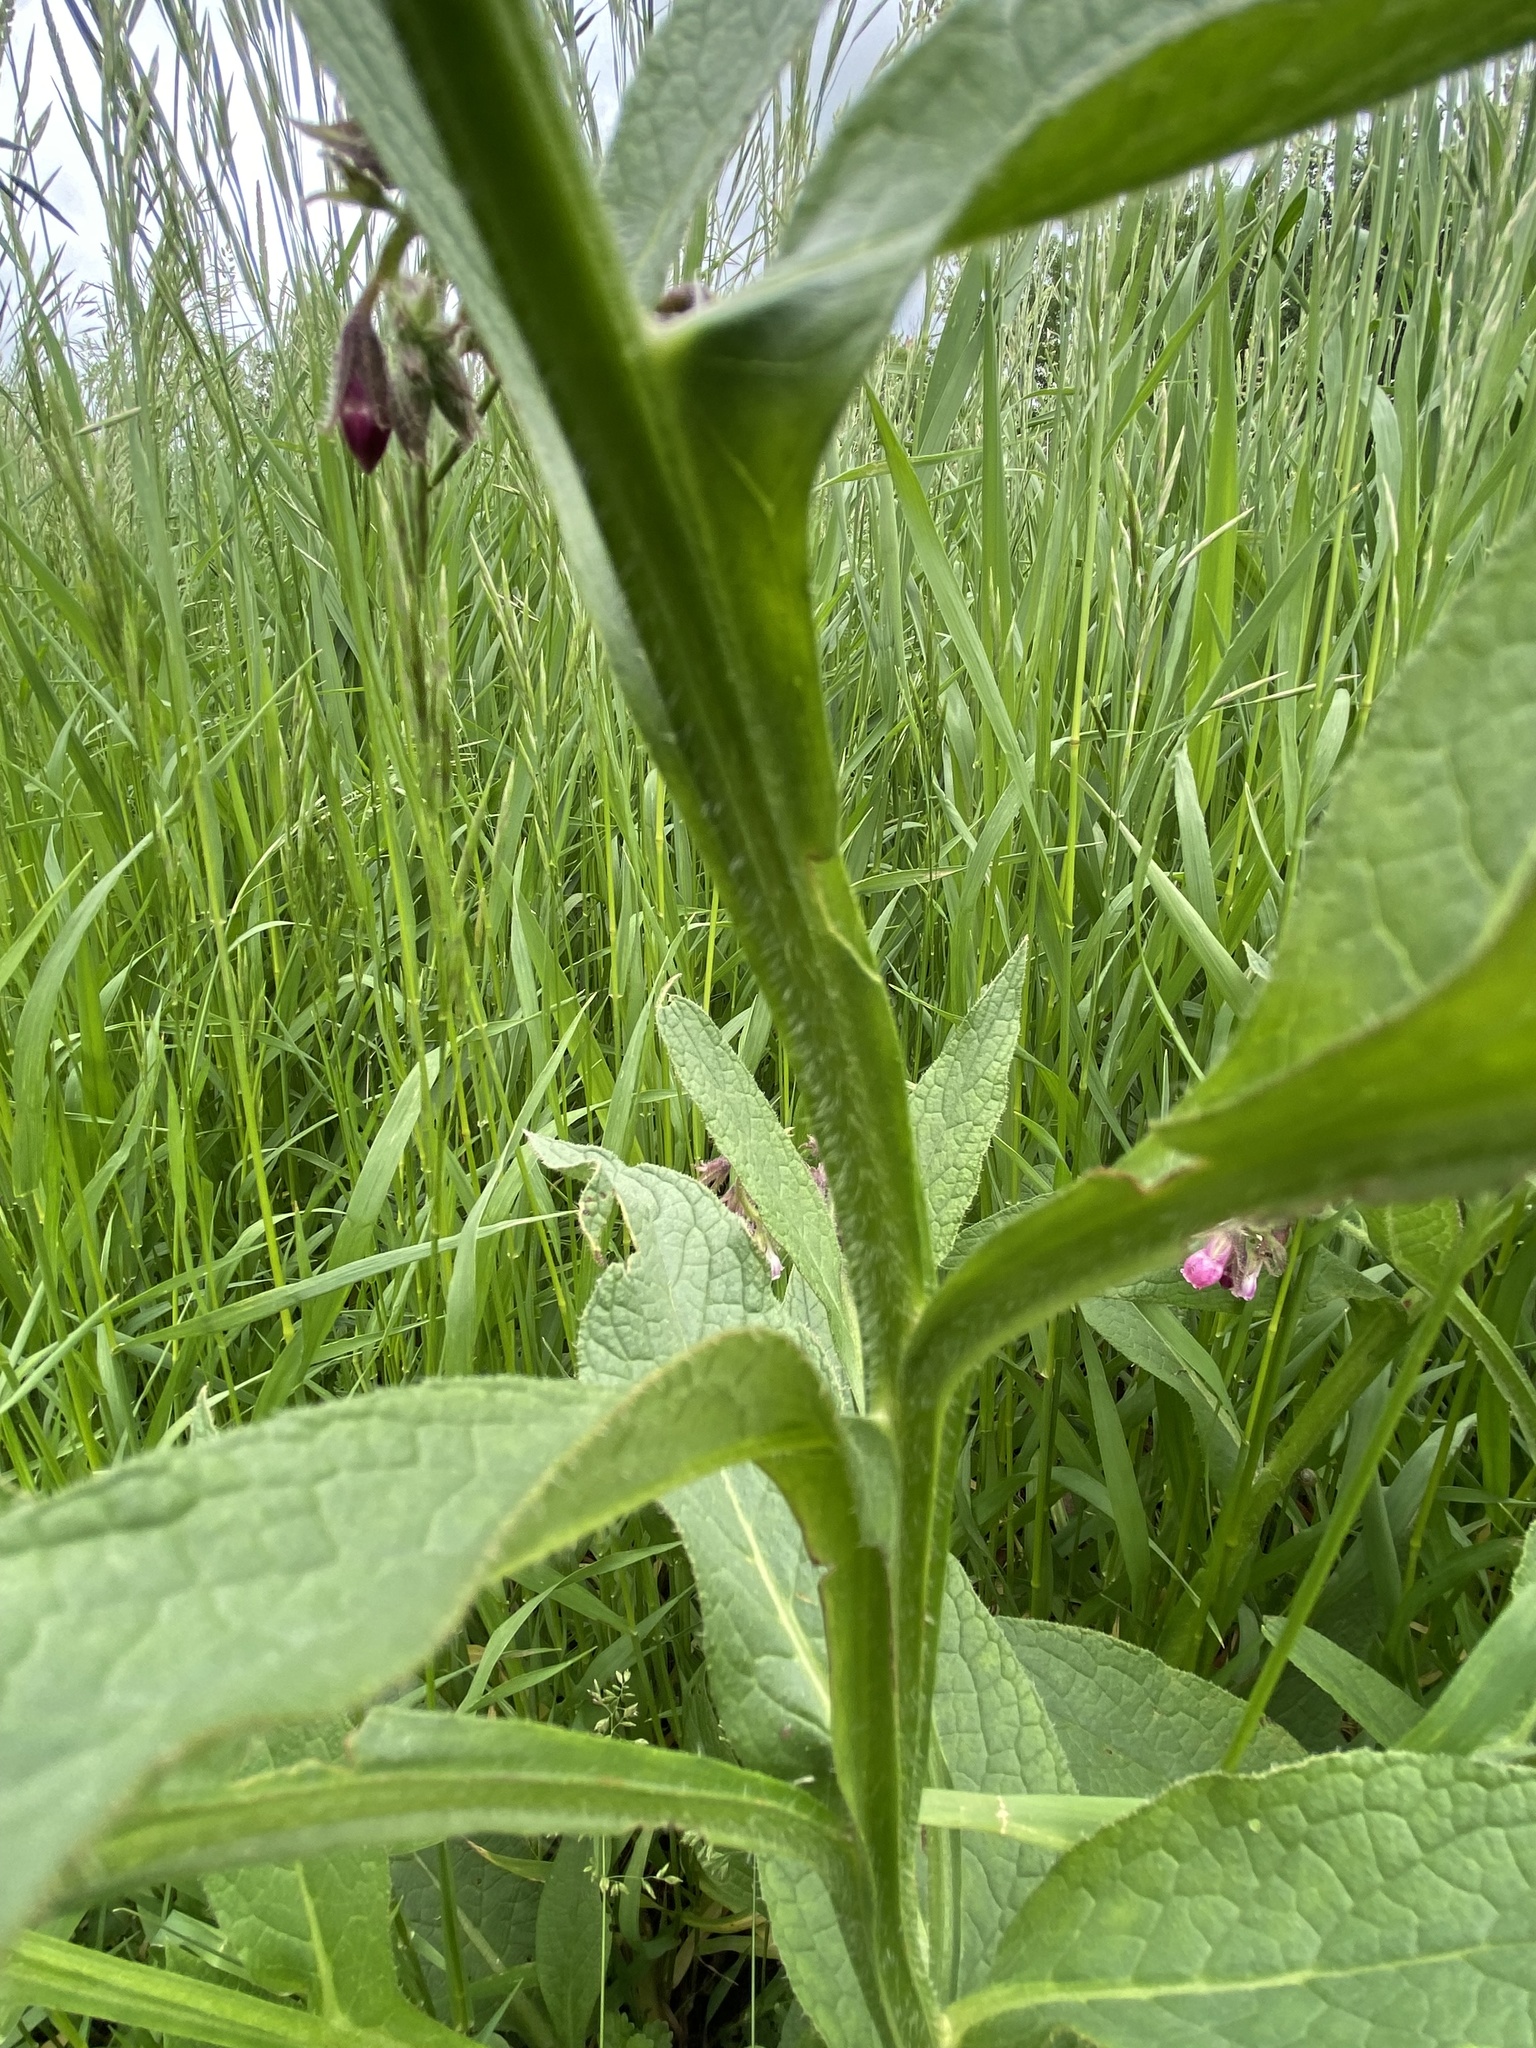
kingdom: Plantae
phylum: Tracheophyta
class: Magnoliopsida
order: Boraginales
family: Boraginaceae
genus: Symphytum
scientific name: Symphytum officinale
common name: Common comfrey
